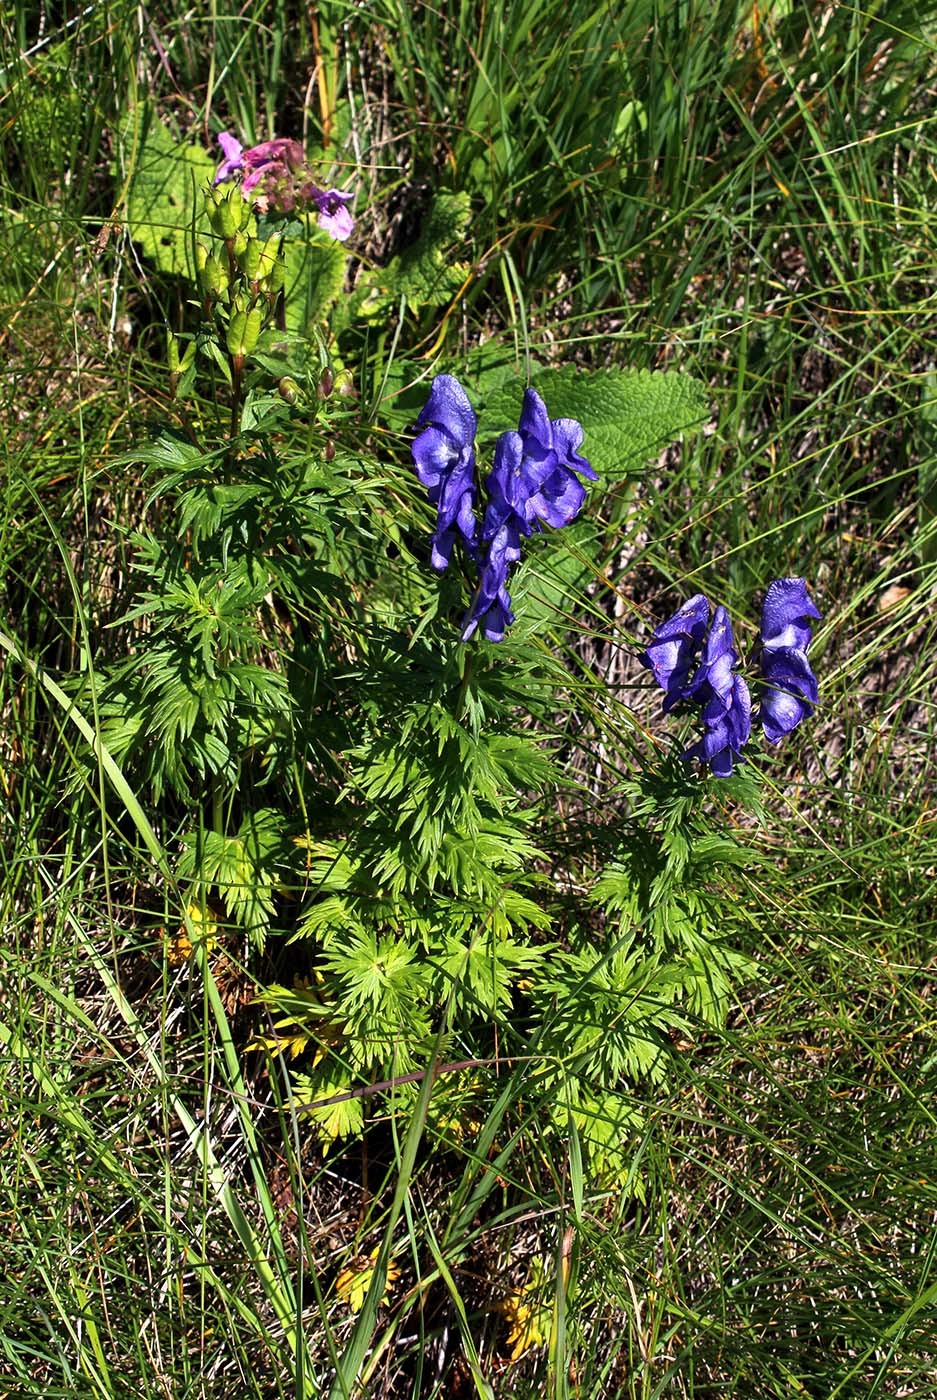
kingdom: Plantae
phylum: Tracheophyta
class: Magnoliopsida
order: Ranunculales
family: Ranunculaceae
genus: Aconitum
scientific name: Aconitum
